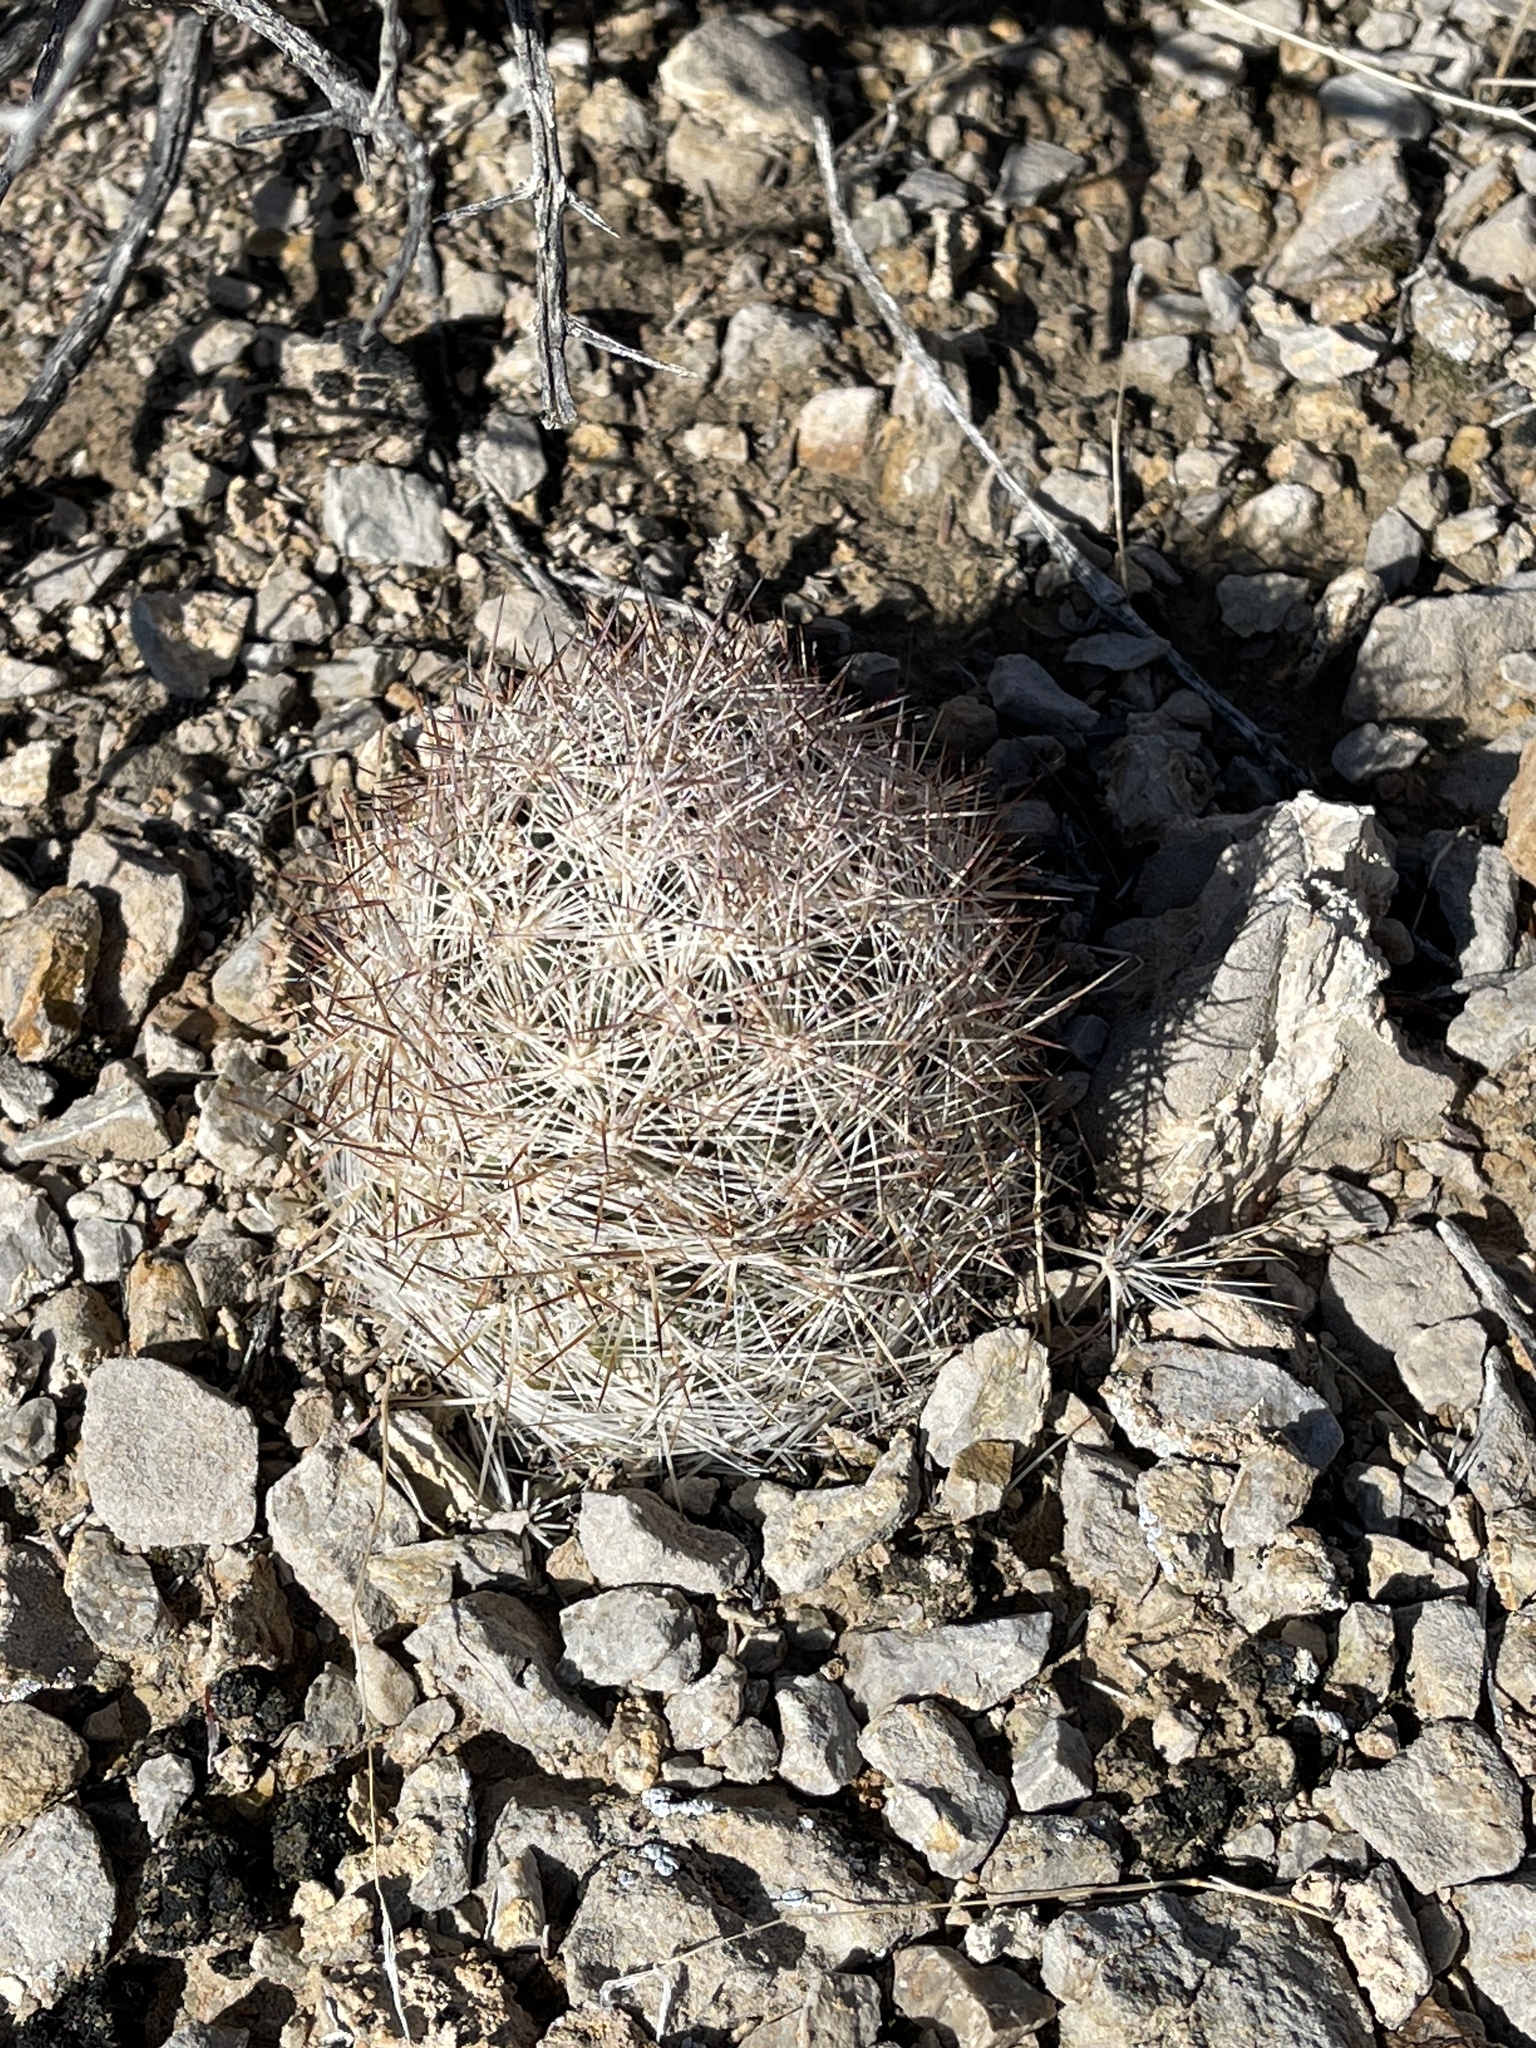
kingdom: Plantae
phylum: Tracheophyta
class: Magnoliopsida
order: Caryophyllales
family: Cactaceae
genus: Pelecyphora
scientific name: Pelecyphora dasyacantha
